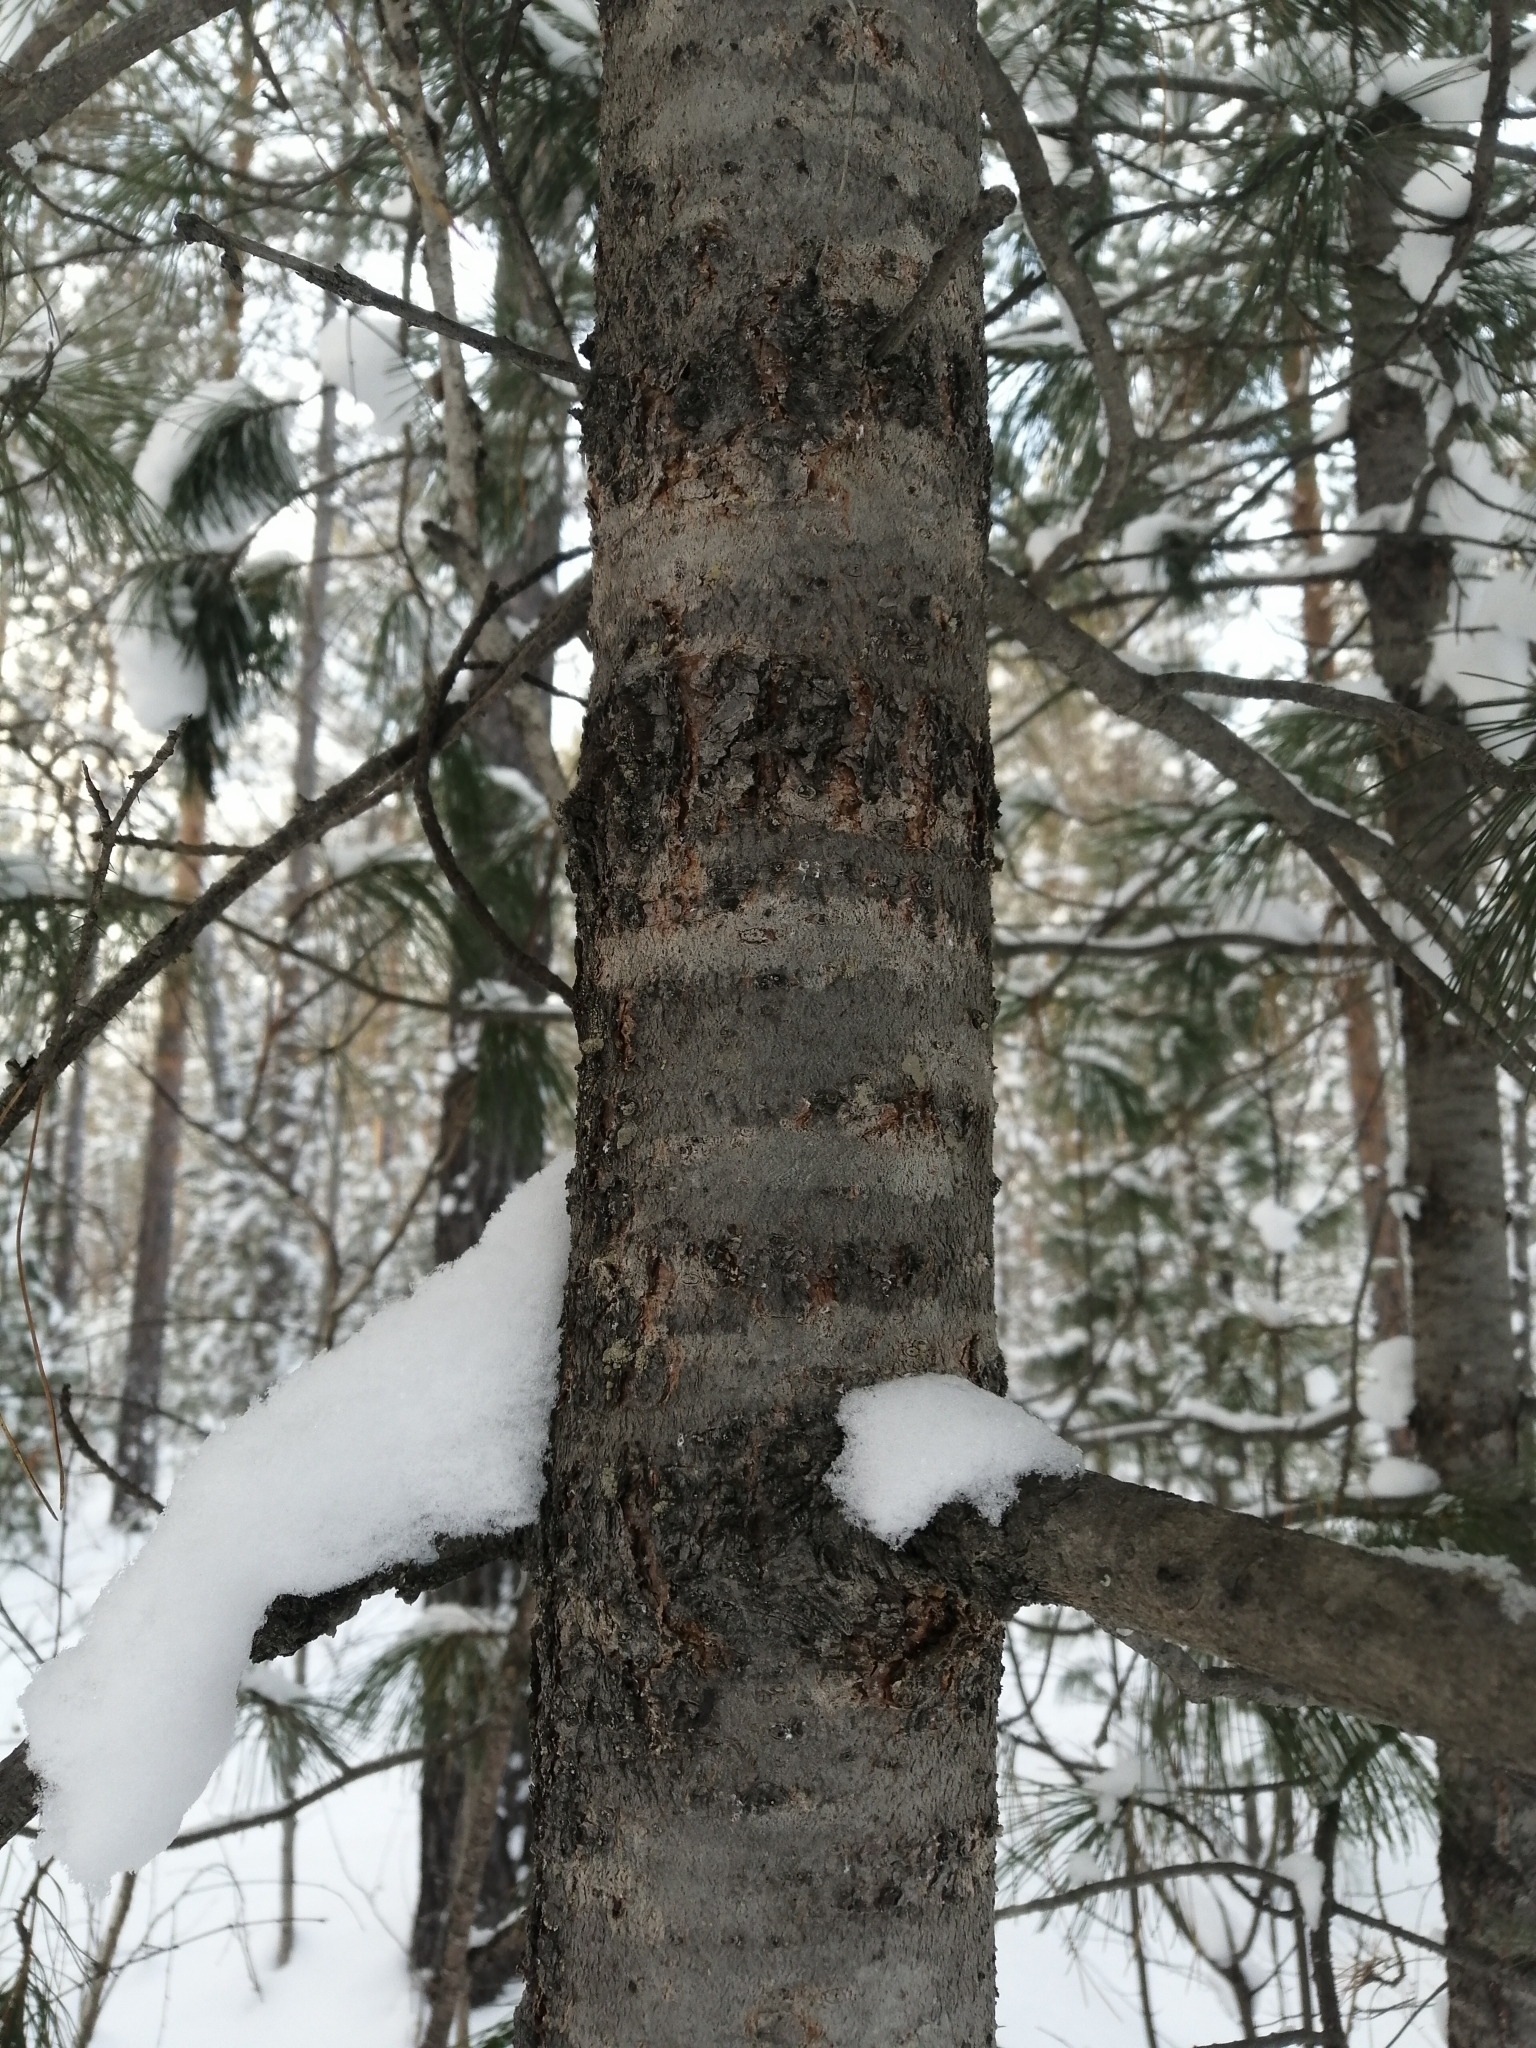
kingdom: Plantae
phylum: Tracheophyta
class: Pinopsida
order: Pinales
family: Pinaceae
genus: Pinus
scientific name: Pinus sibirica
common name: Siberian pine
